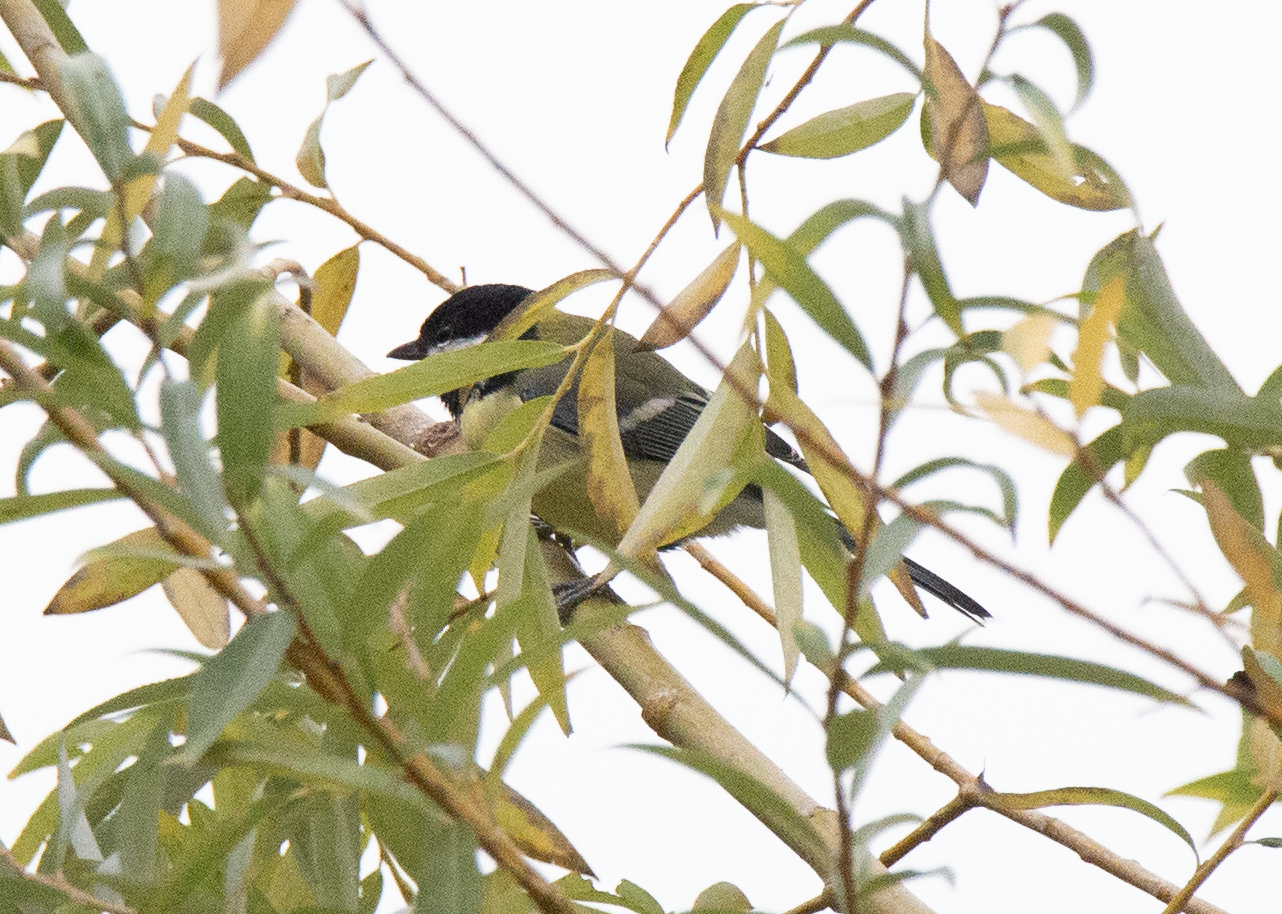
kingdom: Animalia
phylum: Chordata
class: Aves
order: Passeriformes
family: Paridae
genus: Parus
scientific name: Parus major
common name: Great tit
